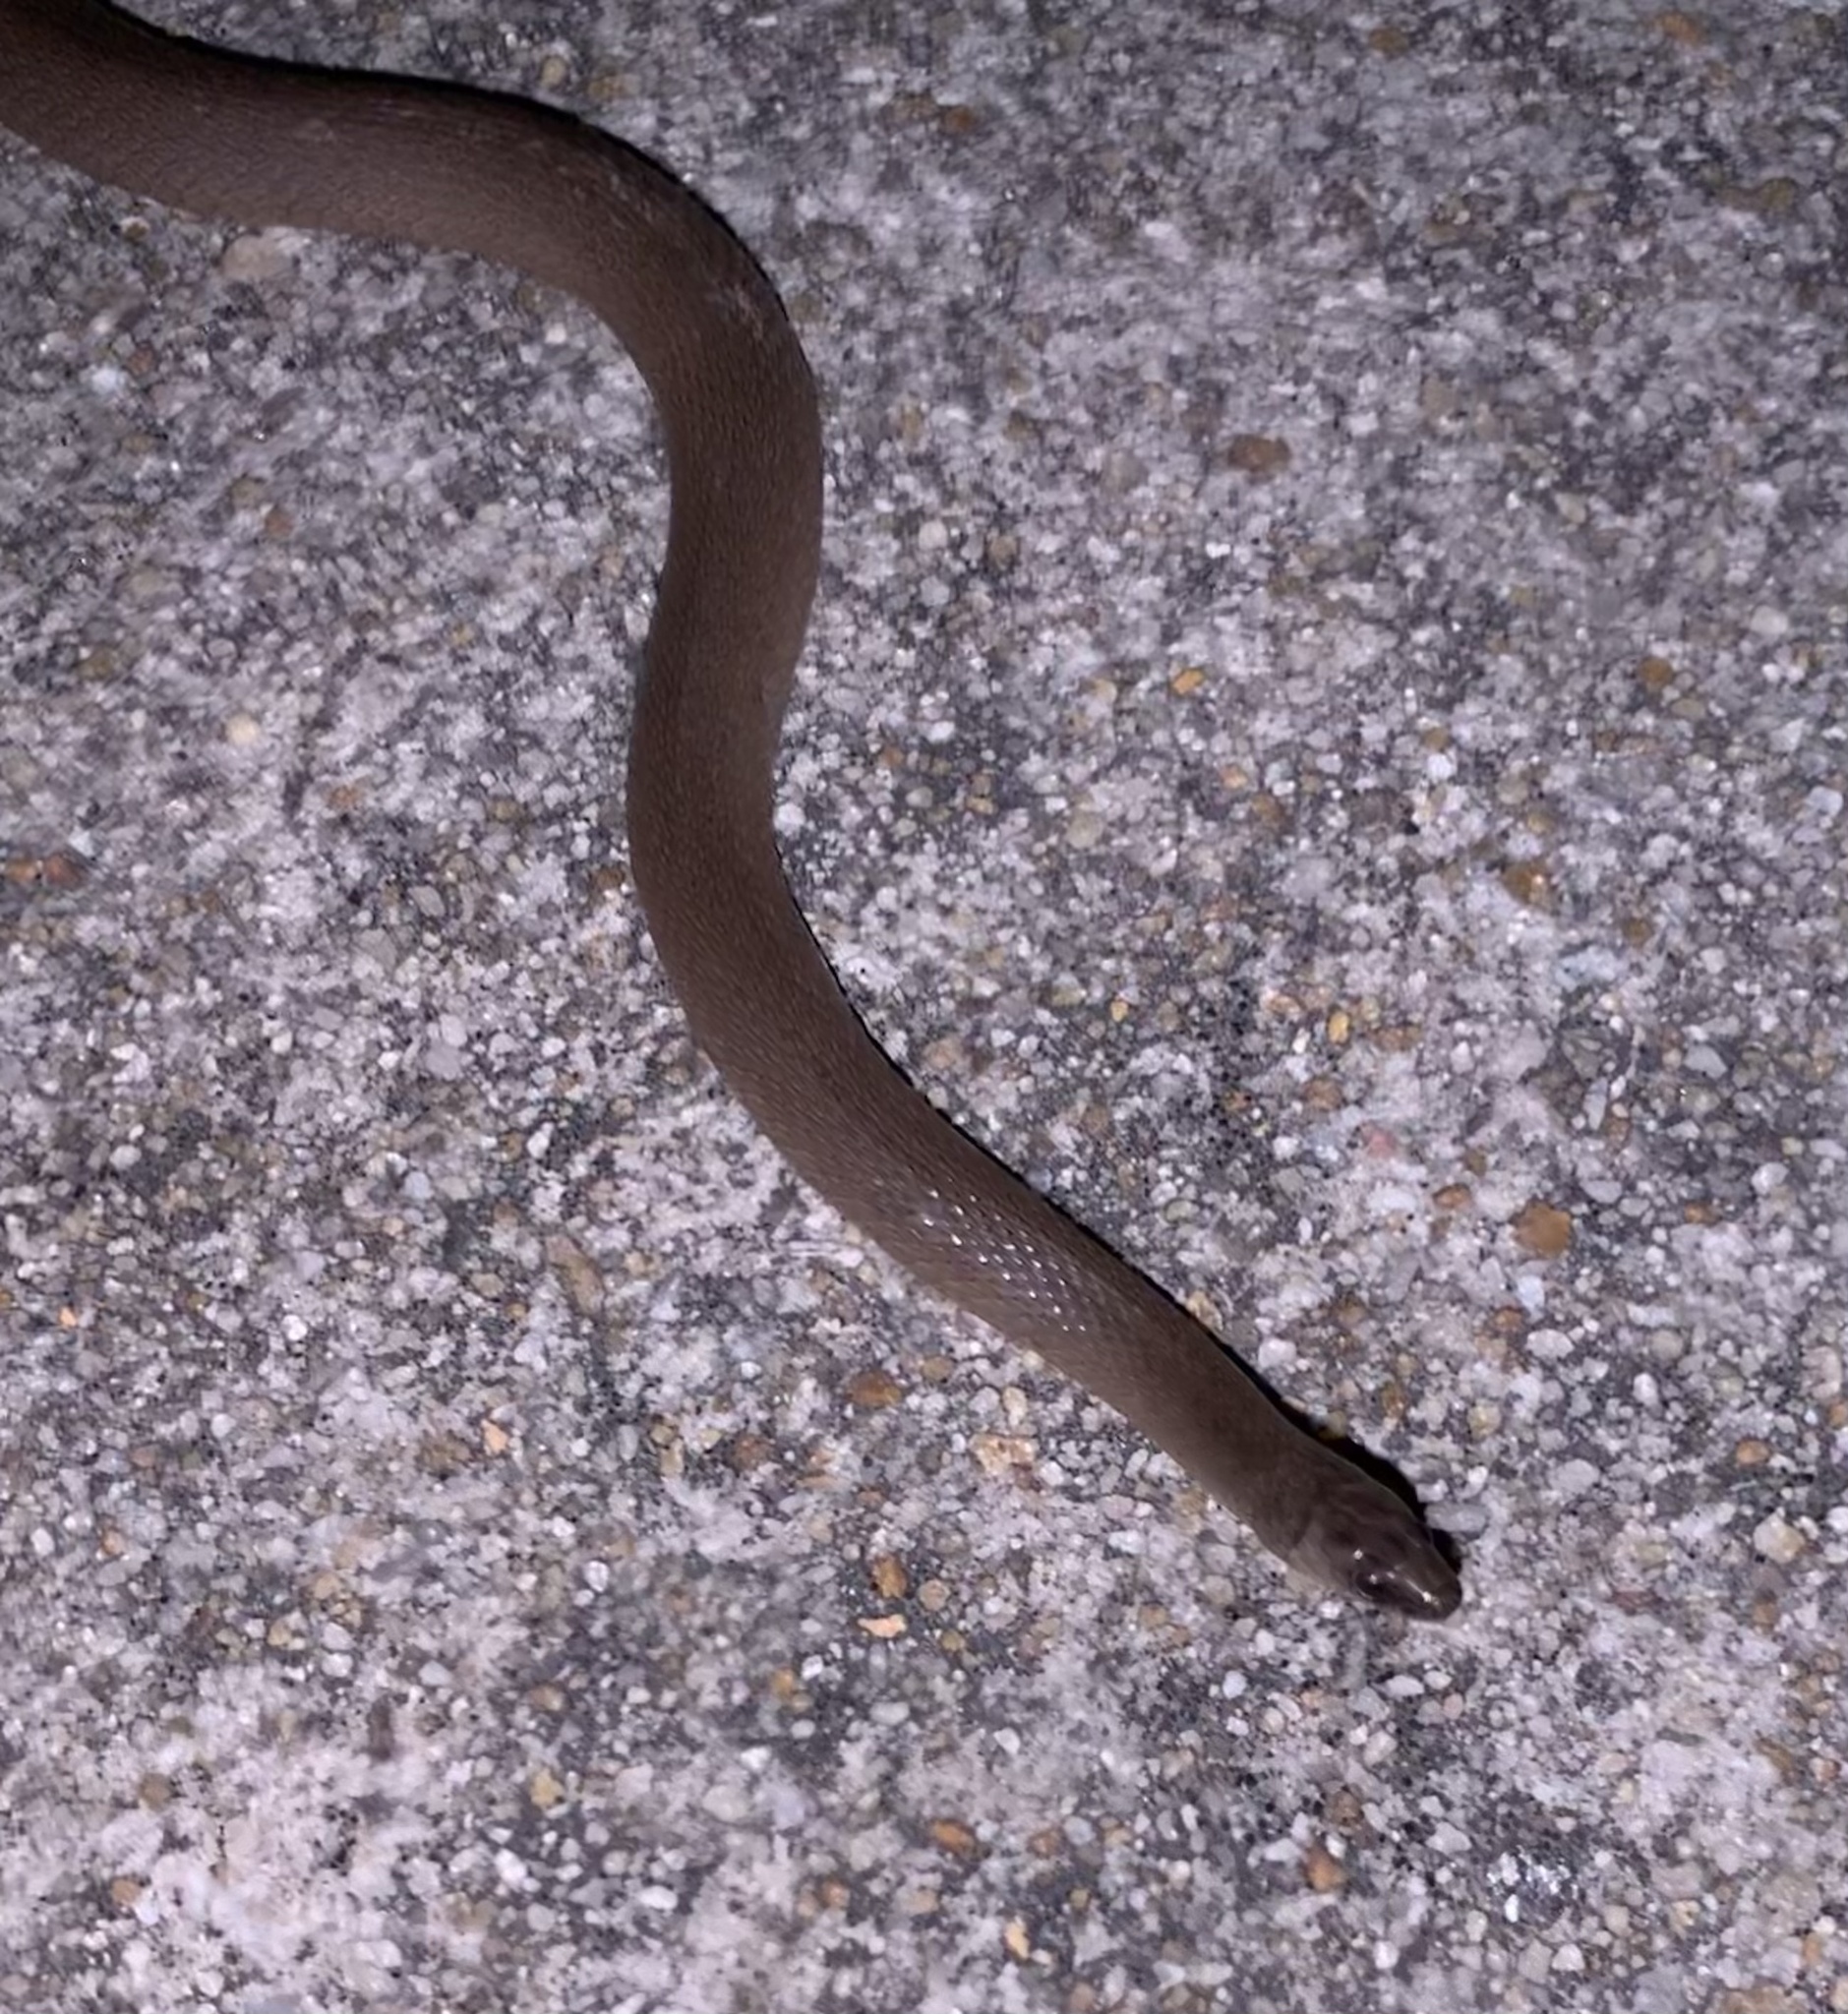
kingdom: Animalia
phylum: Chordata
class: Squamata
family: Colubridae
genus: Haldea
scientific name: Haldea striatula
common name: Rough earth snake
